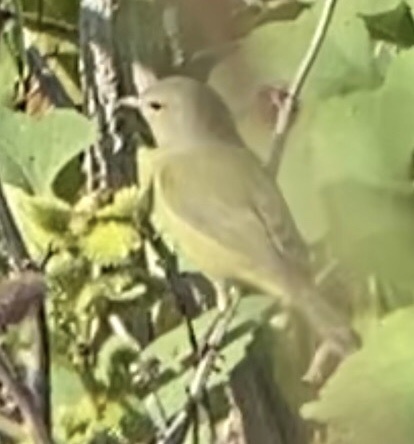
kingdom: Animalia
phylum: Chordata
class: Aves
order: Passeriformes
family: Parulidae
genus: Leiothlypis
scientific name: Leiothlypis celata
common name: Orange-crowned warbler
